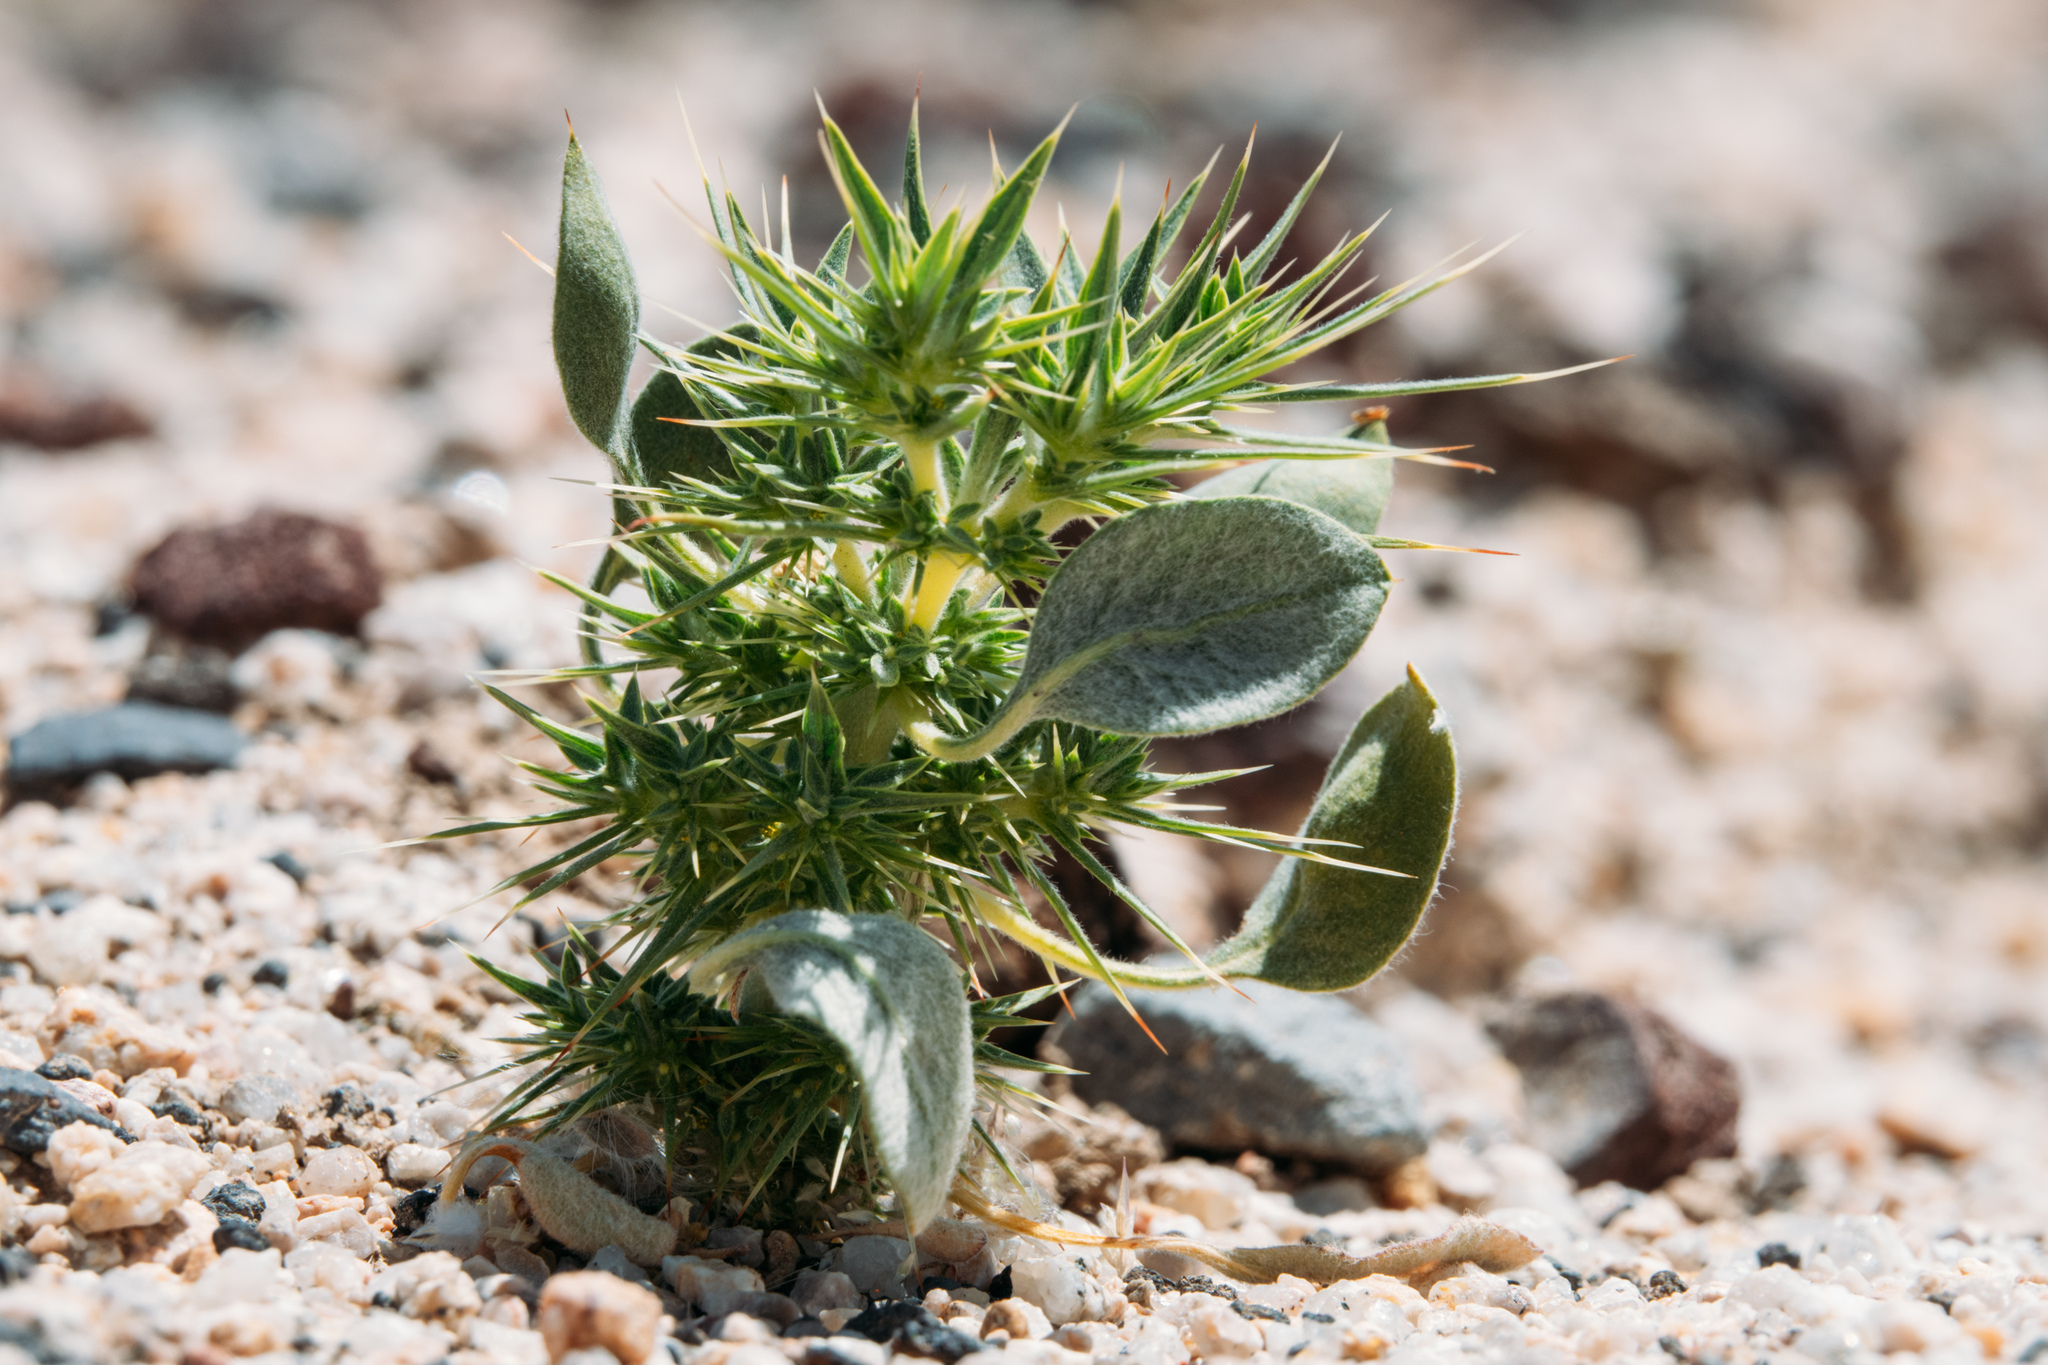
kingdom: Plantae
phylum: Tracheophyta
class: Magnoliopsida
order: Caryophyllales
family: Polygonaceae
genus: Chorizanthe
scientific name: Chorizanthe rigida
